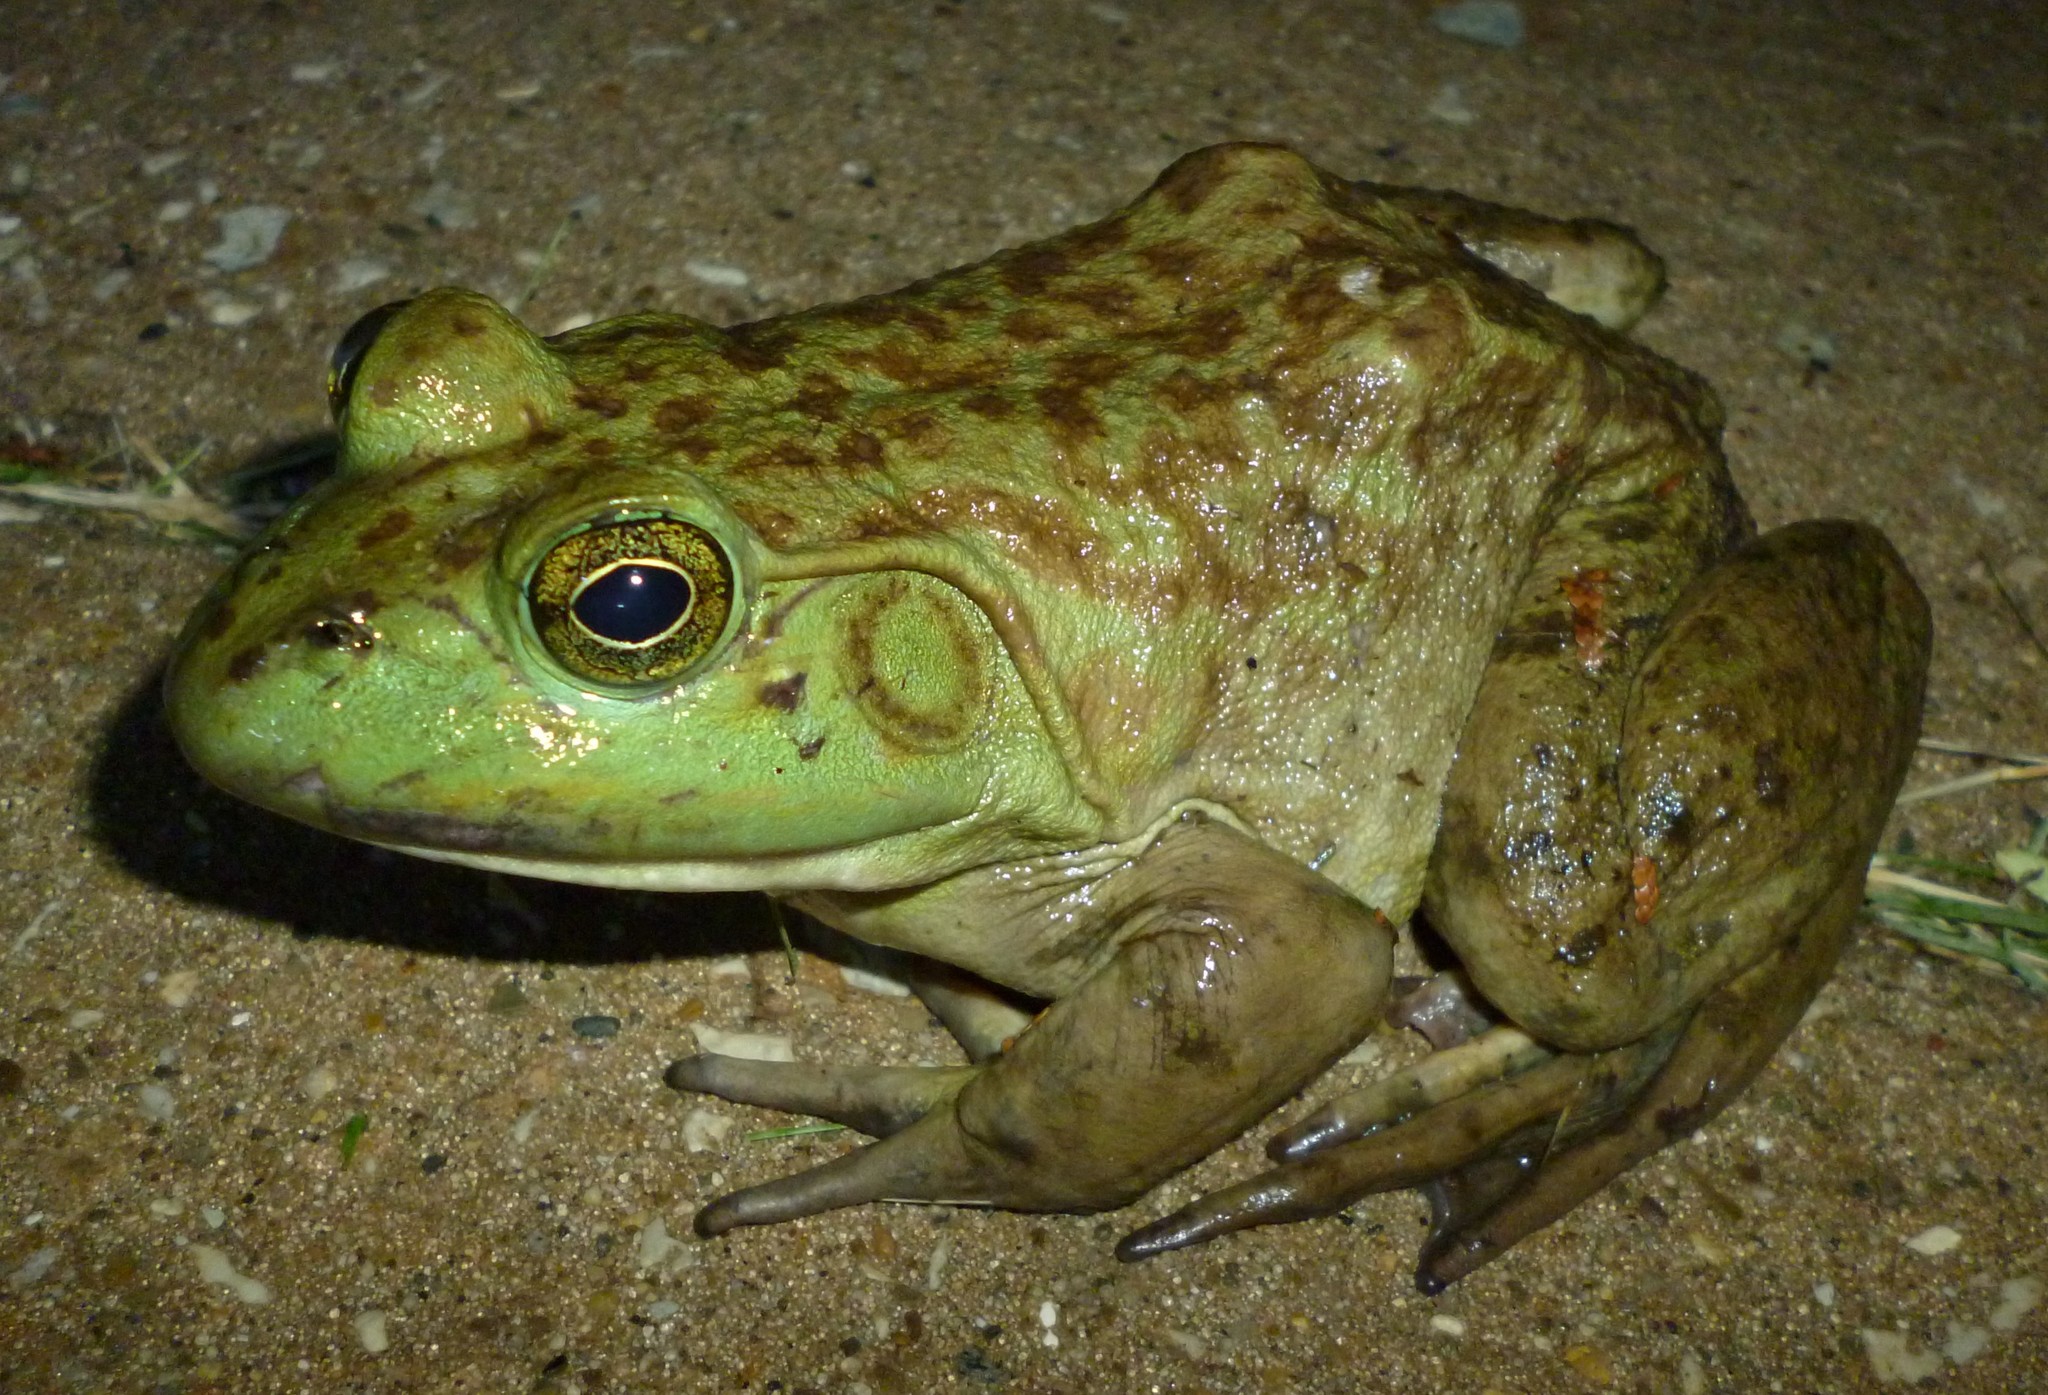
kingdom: Animalia
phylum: Chordata
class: Amphibia
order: Anura
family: Ranidae
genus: Lithobates
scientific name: Lithobates catesbeianus
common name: American bullfrog
